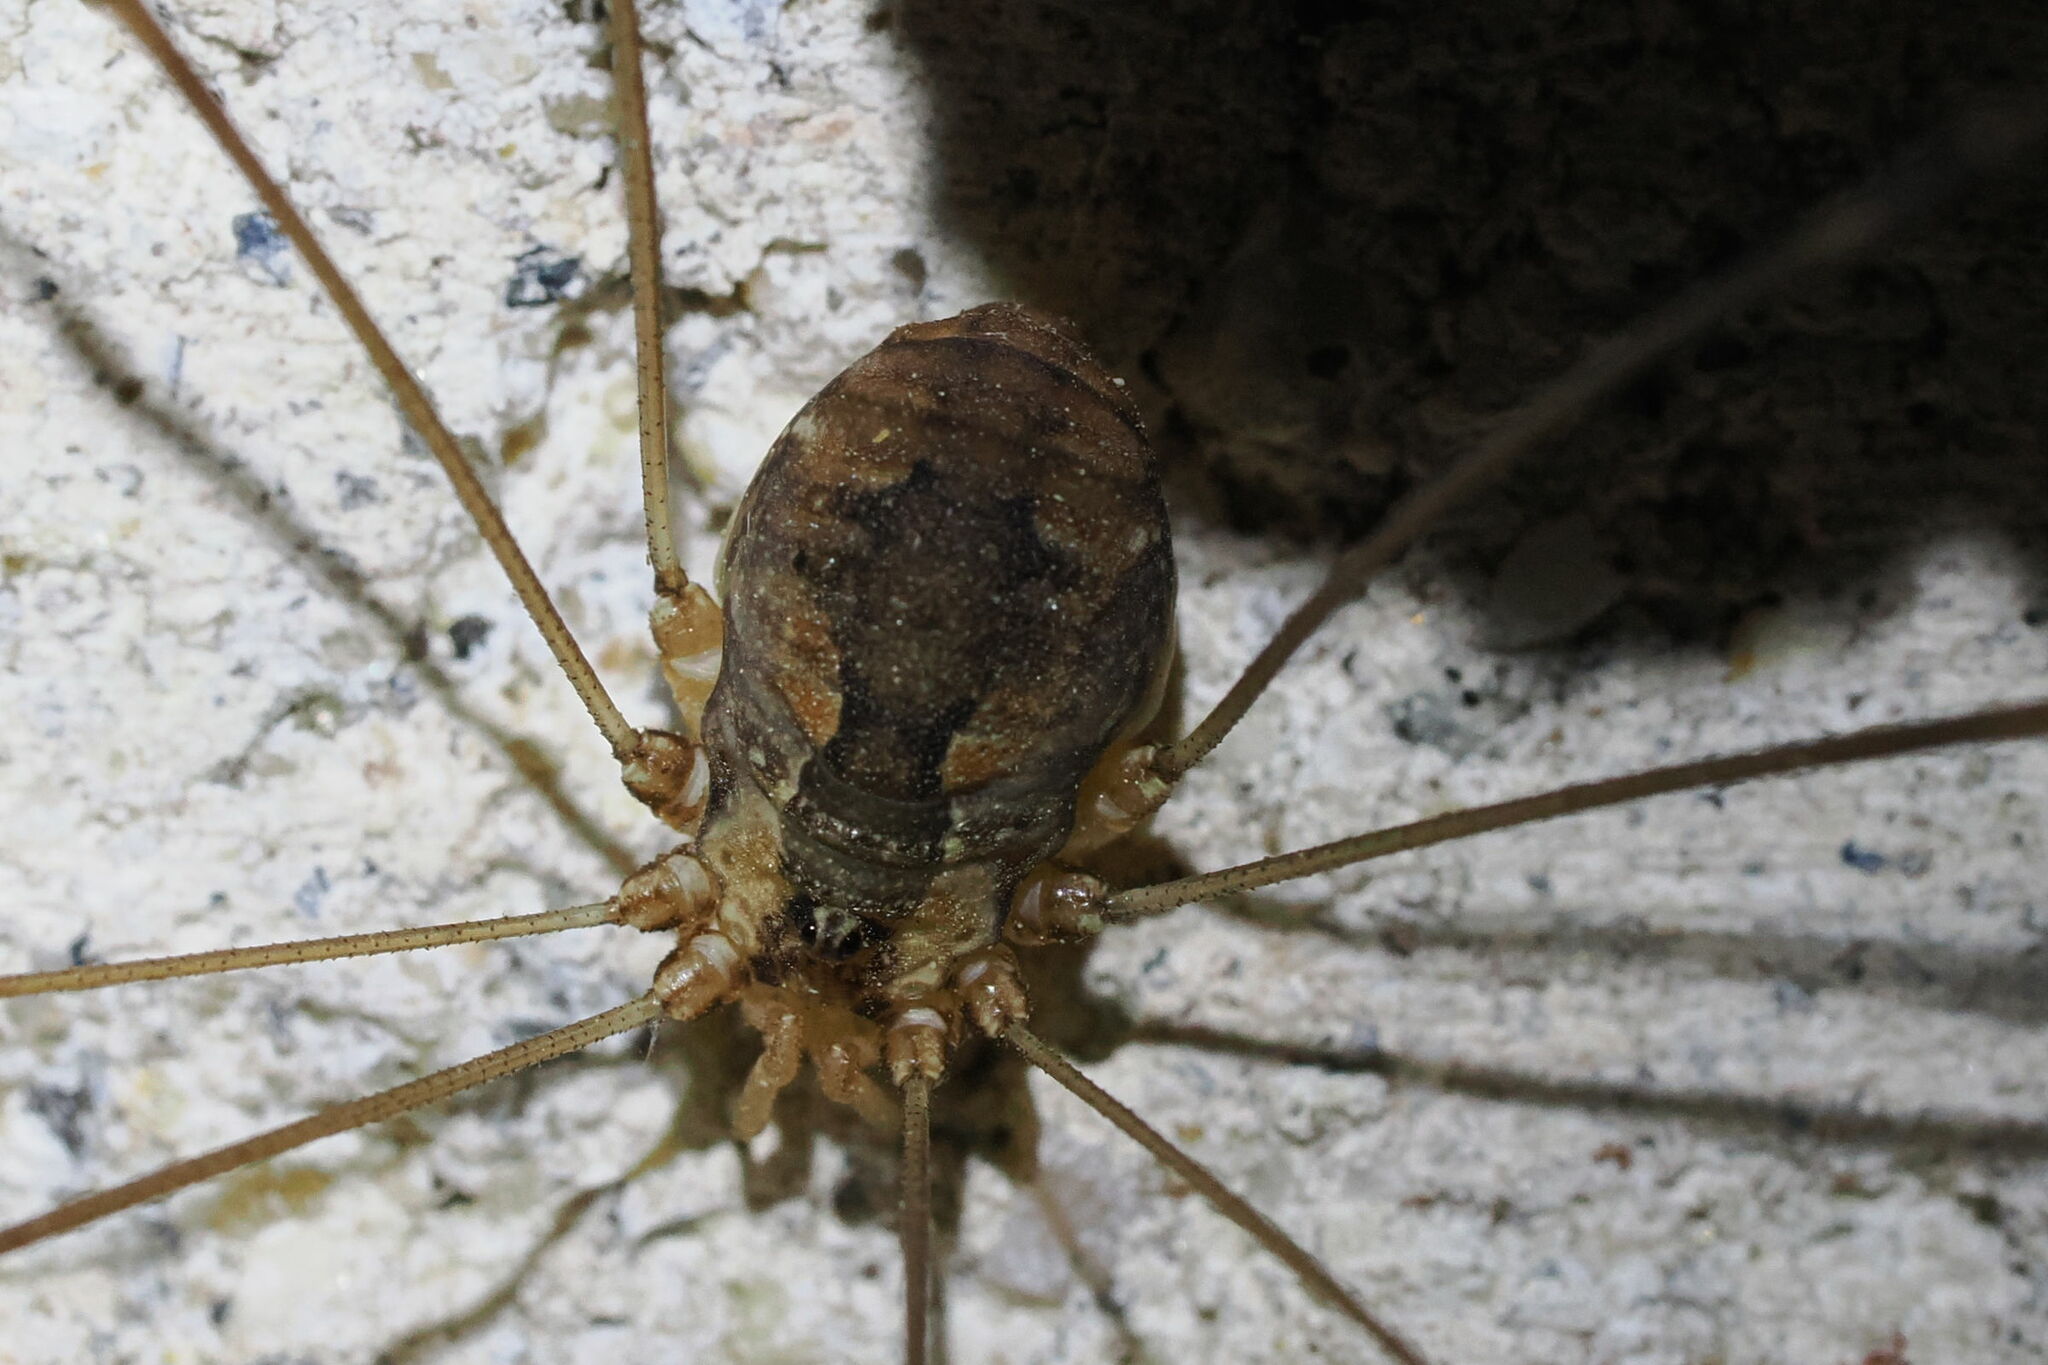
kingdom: Animalia
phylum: Arthropoda
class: Arachnida
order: Opiliones
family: Sclerosomatidae
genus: Leiobunum
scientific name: Leiobunum escondidum
